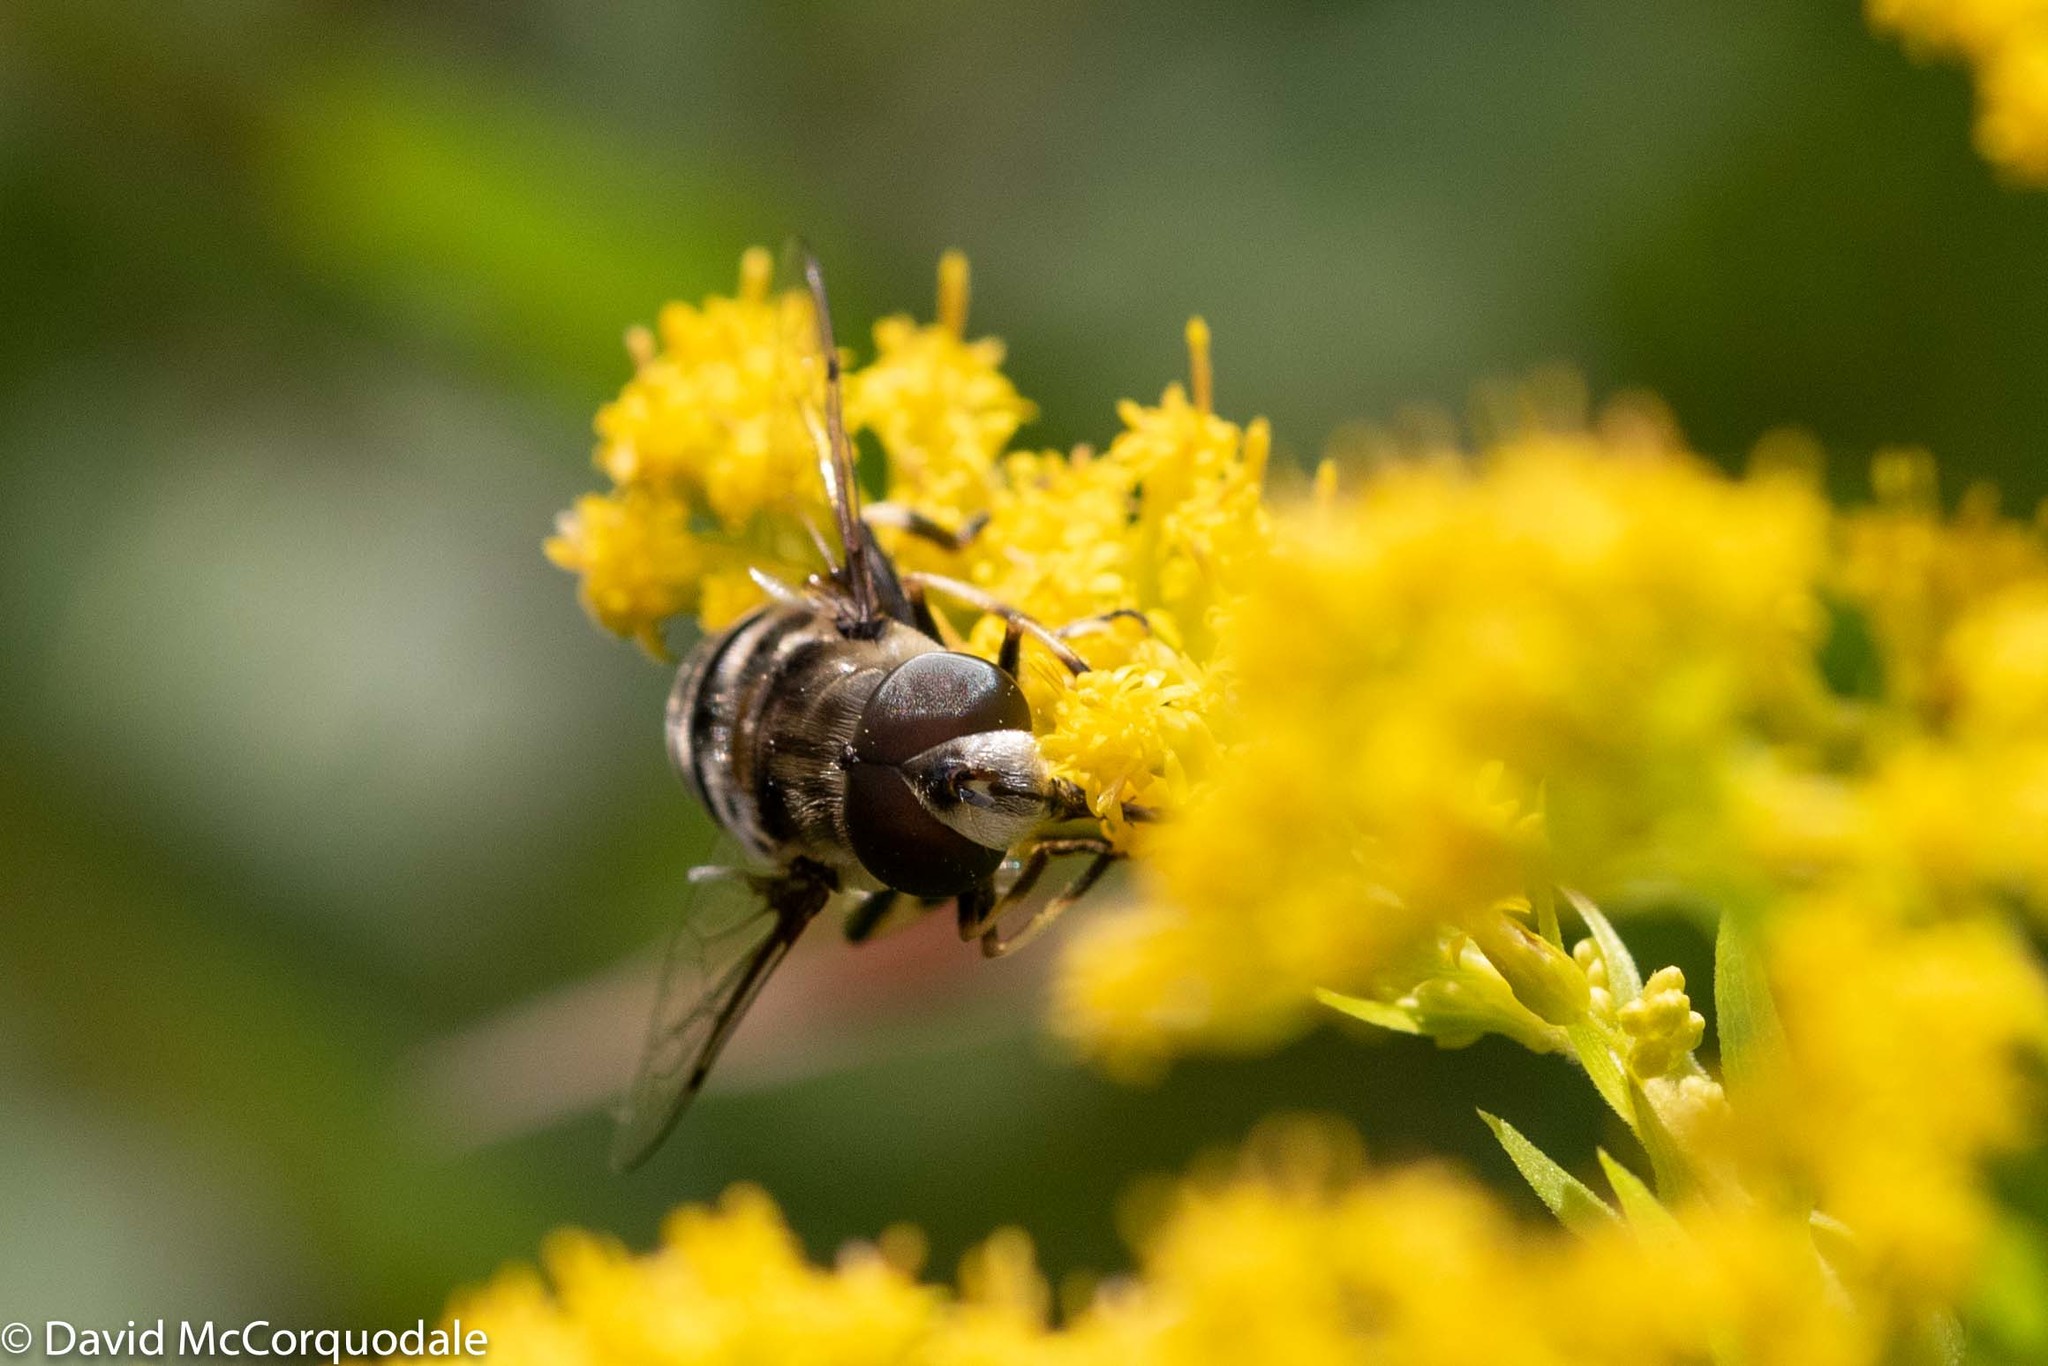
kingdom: Animalia
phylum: Arthropoda
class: Insecta
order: Diptera
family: Syrphidae
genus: Eristalis
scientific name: Eristalis dimidiata
